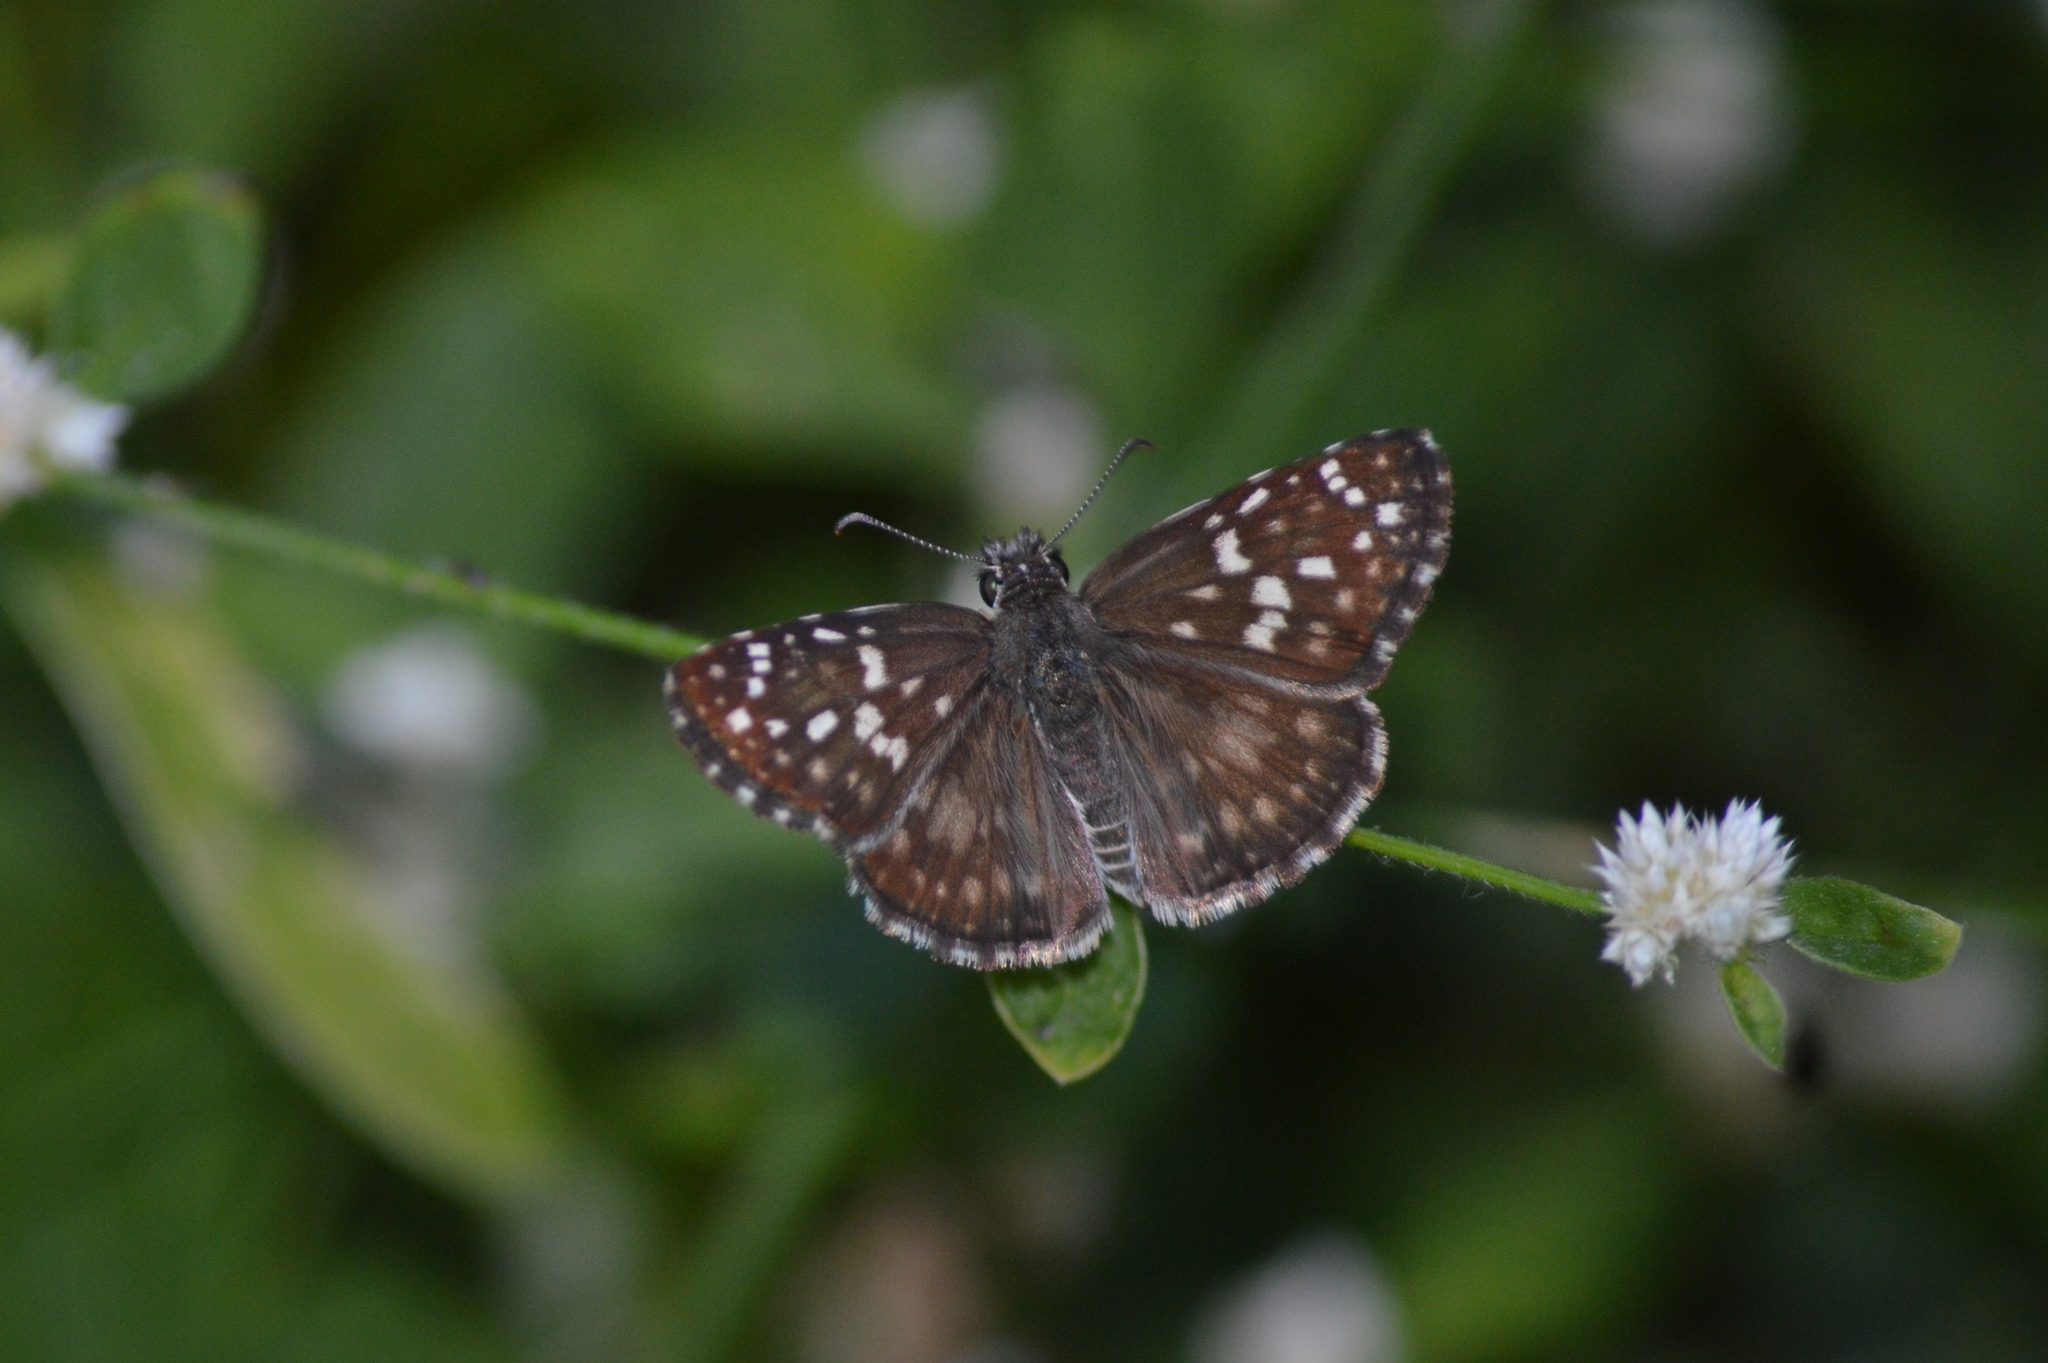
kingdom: Animalia
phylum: Arthropoda
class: Insecta
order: Lepidoptera
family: Hesperiidae
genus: Pyrgus
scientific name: Pyrgus oileus
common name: Tropical checkered-skipper
